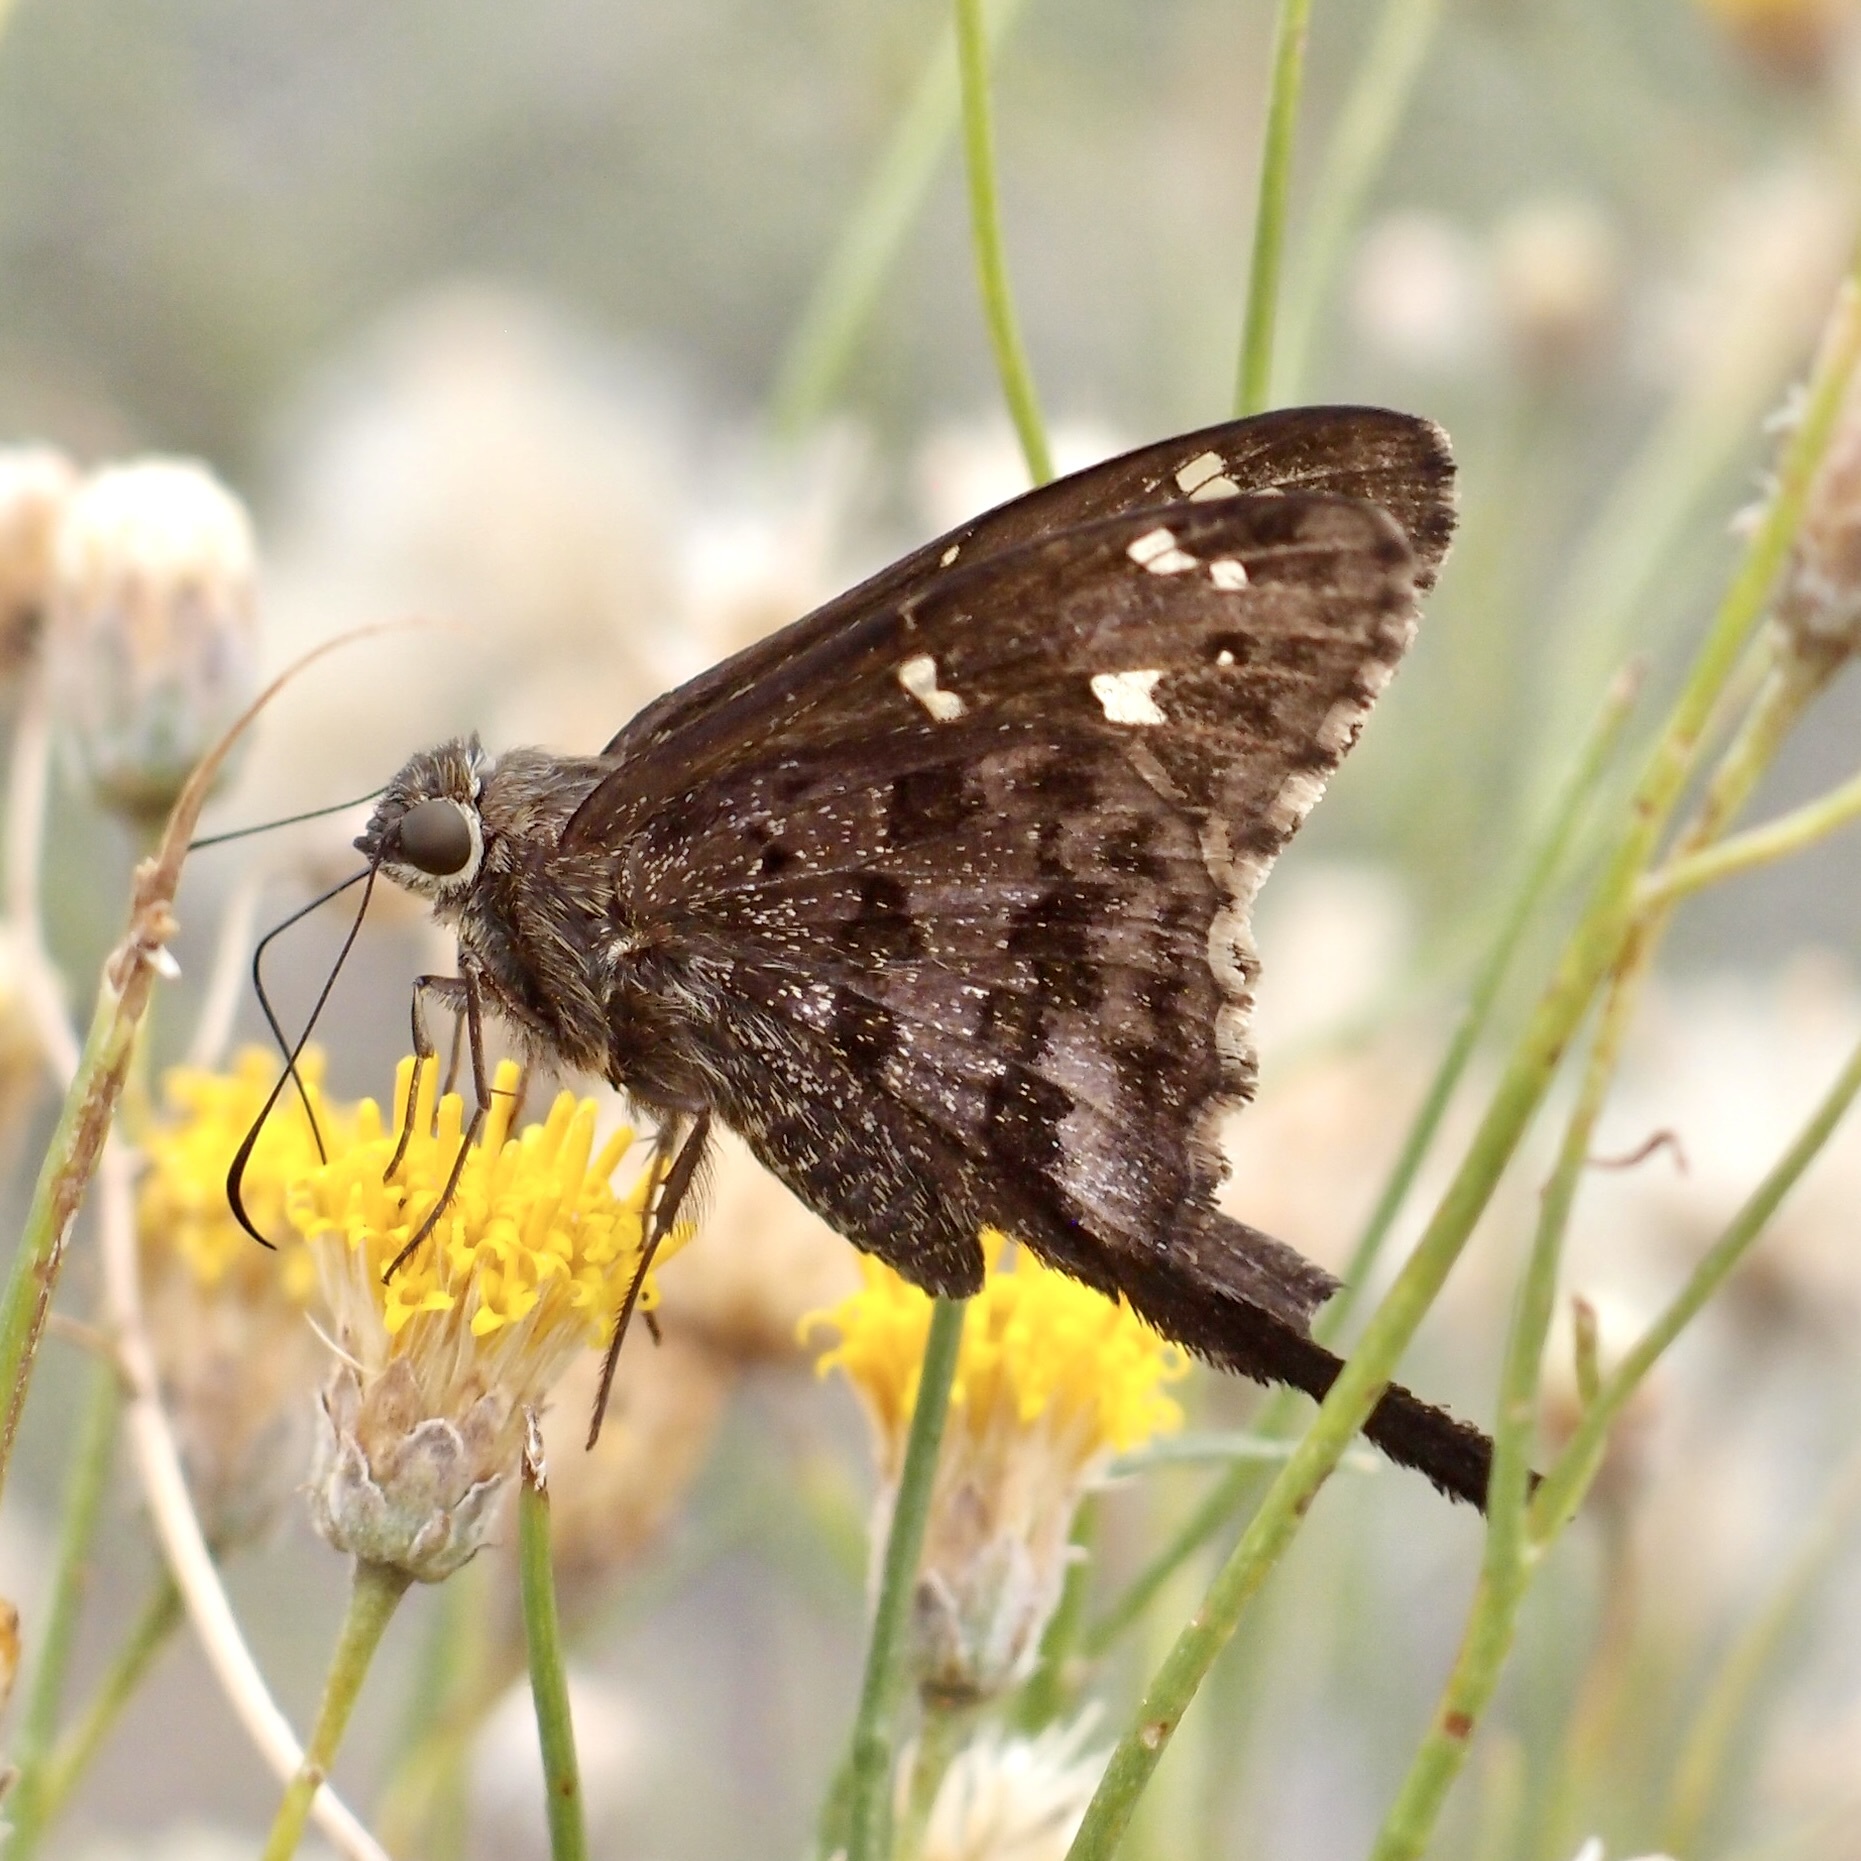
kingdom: Animalia
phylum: Arthropoda
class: Insecta
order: Lepidoptera
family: Hesperiidae
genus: Thorybes
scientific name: Thorybes
